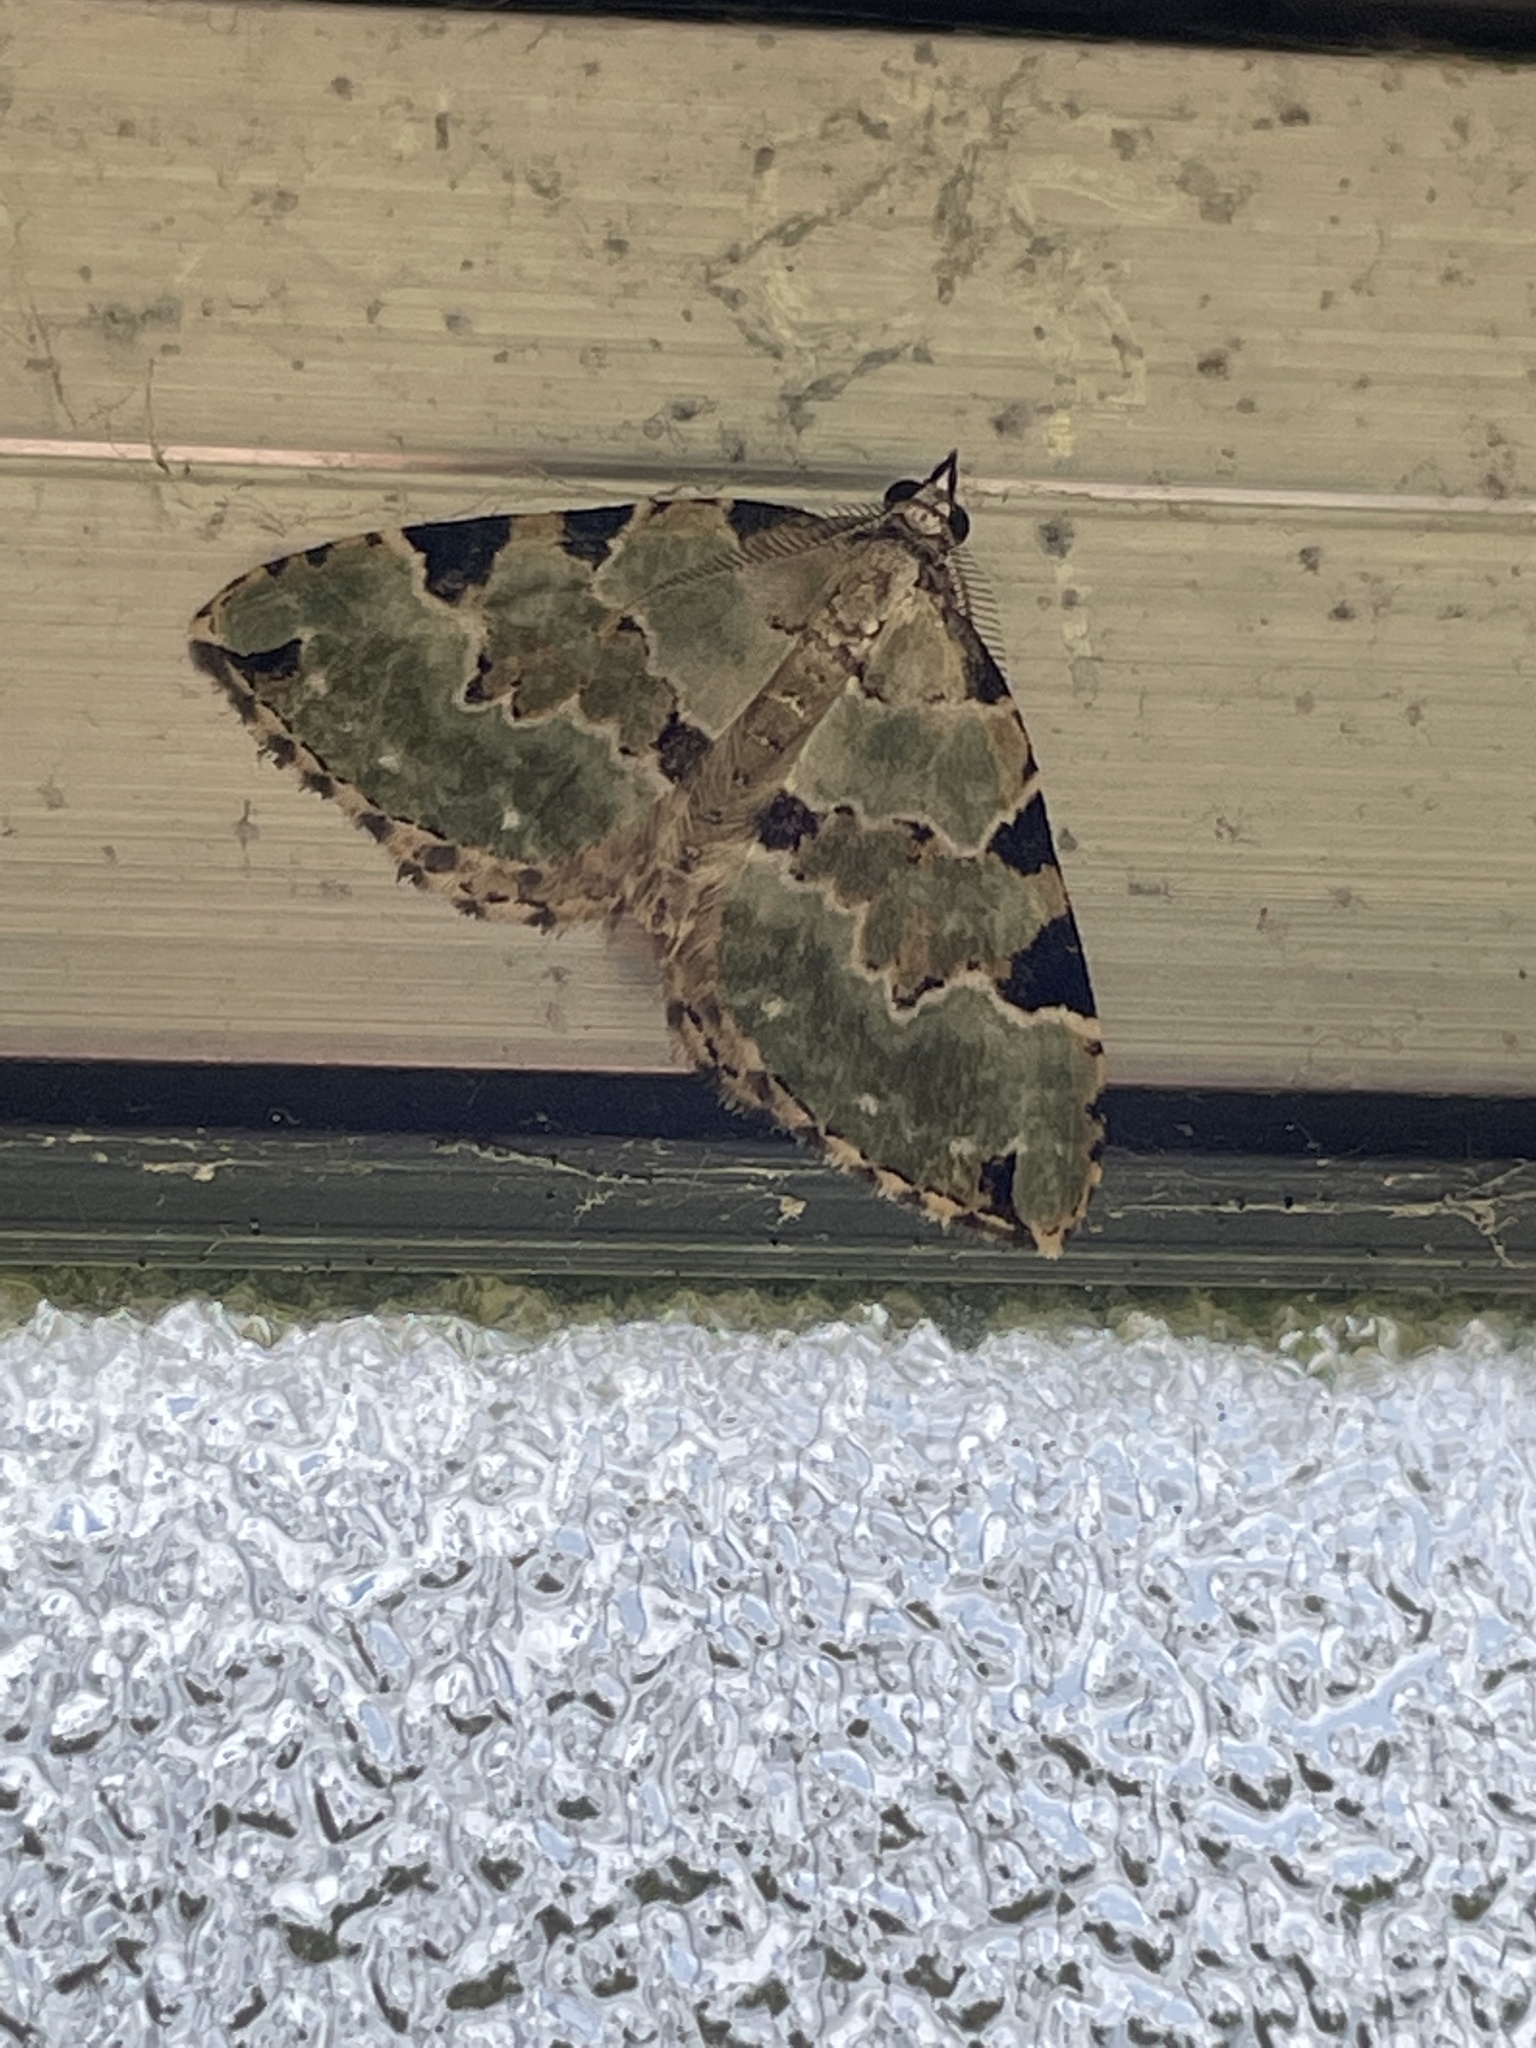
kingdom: Animalia
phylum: Arthropoda
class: Insecta
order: Lepidoptera
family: Geometridae
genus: Colostygia
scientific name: Colostygia pectinataria
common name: Green carpet
